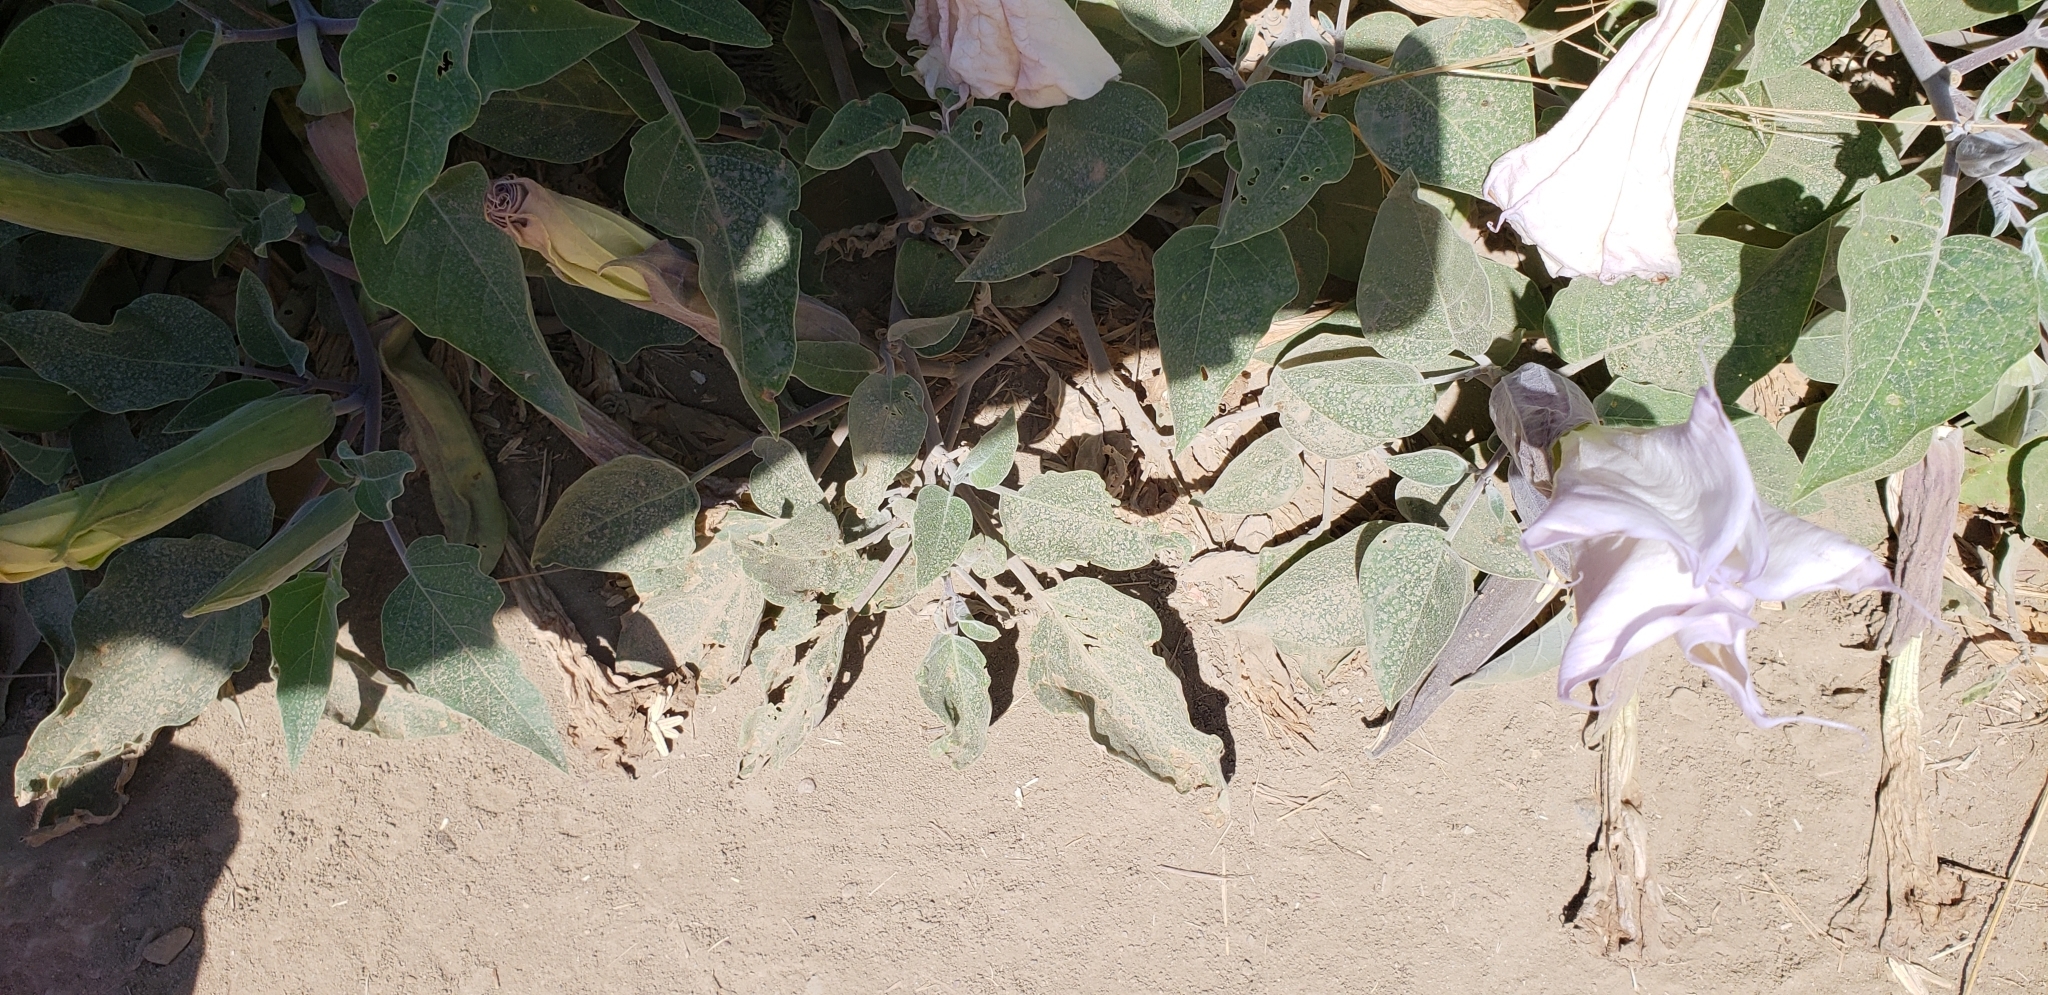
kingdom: Plantae
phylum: Tracheophyta
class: Magnoliopsida
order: Solanales
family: Solanaceae
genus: Datura
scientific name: Datura wrightii
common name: Sacred thorn-apple
